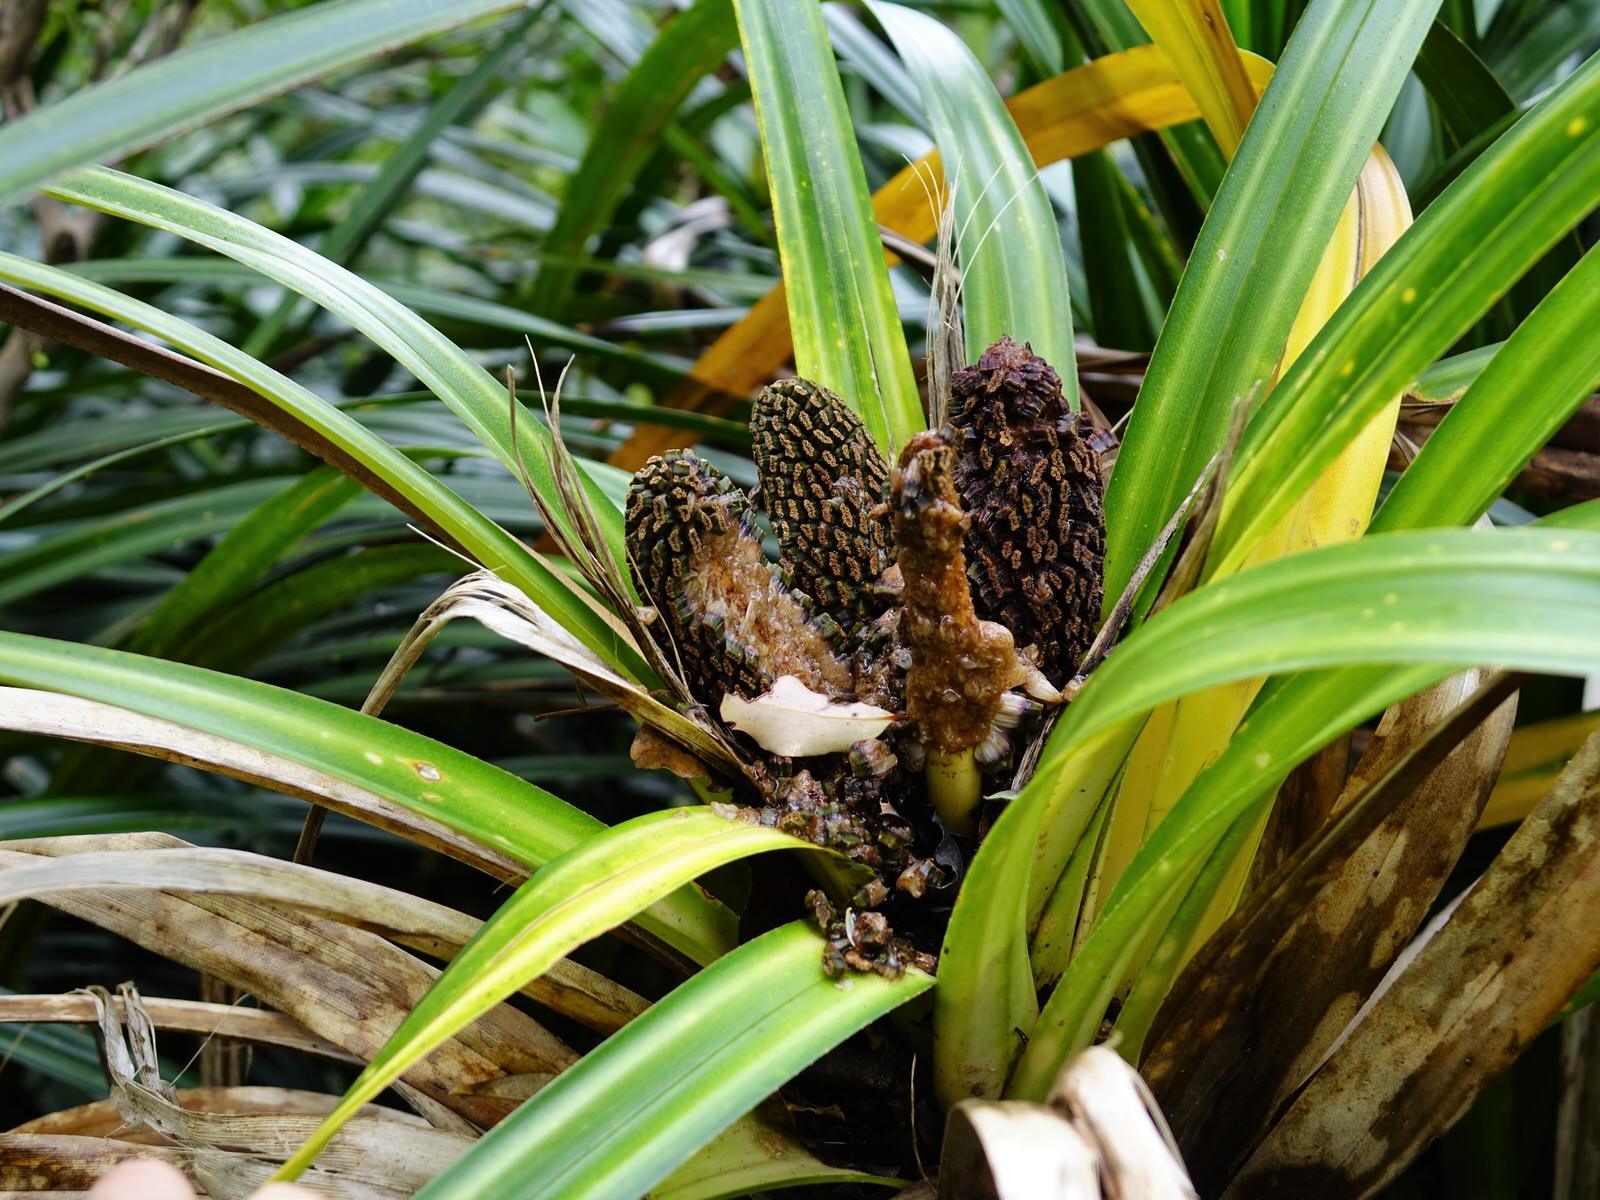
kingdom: Plantae
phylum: Tracheophyta
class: Liliopsida
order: Pandanales
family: Pandanaceae
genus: Freycinetia
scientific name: Freycinetia banksii
